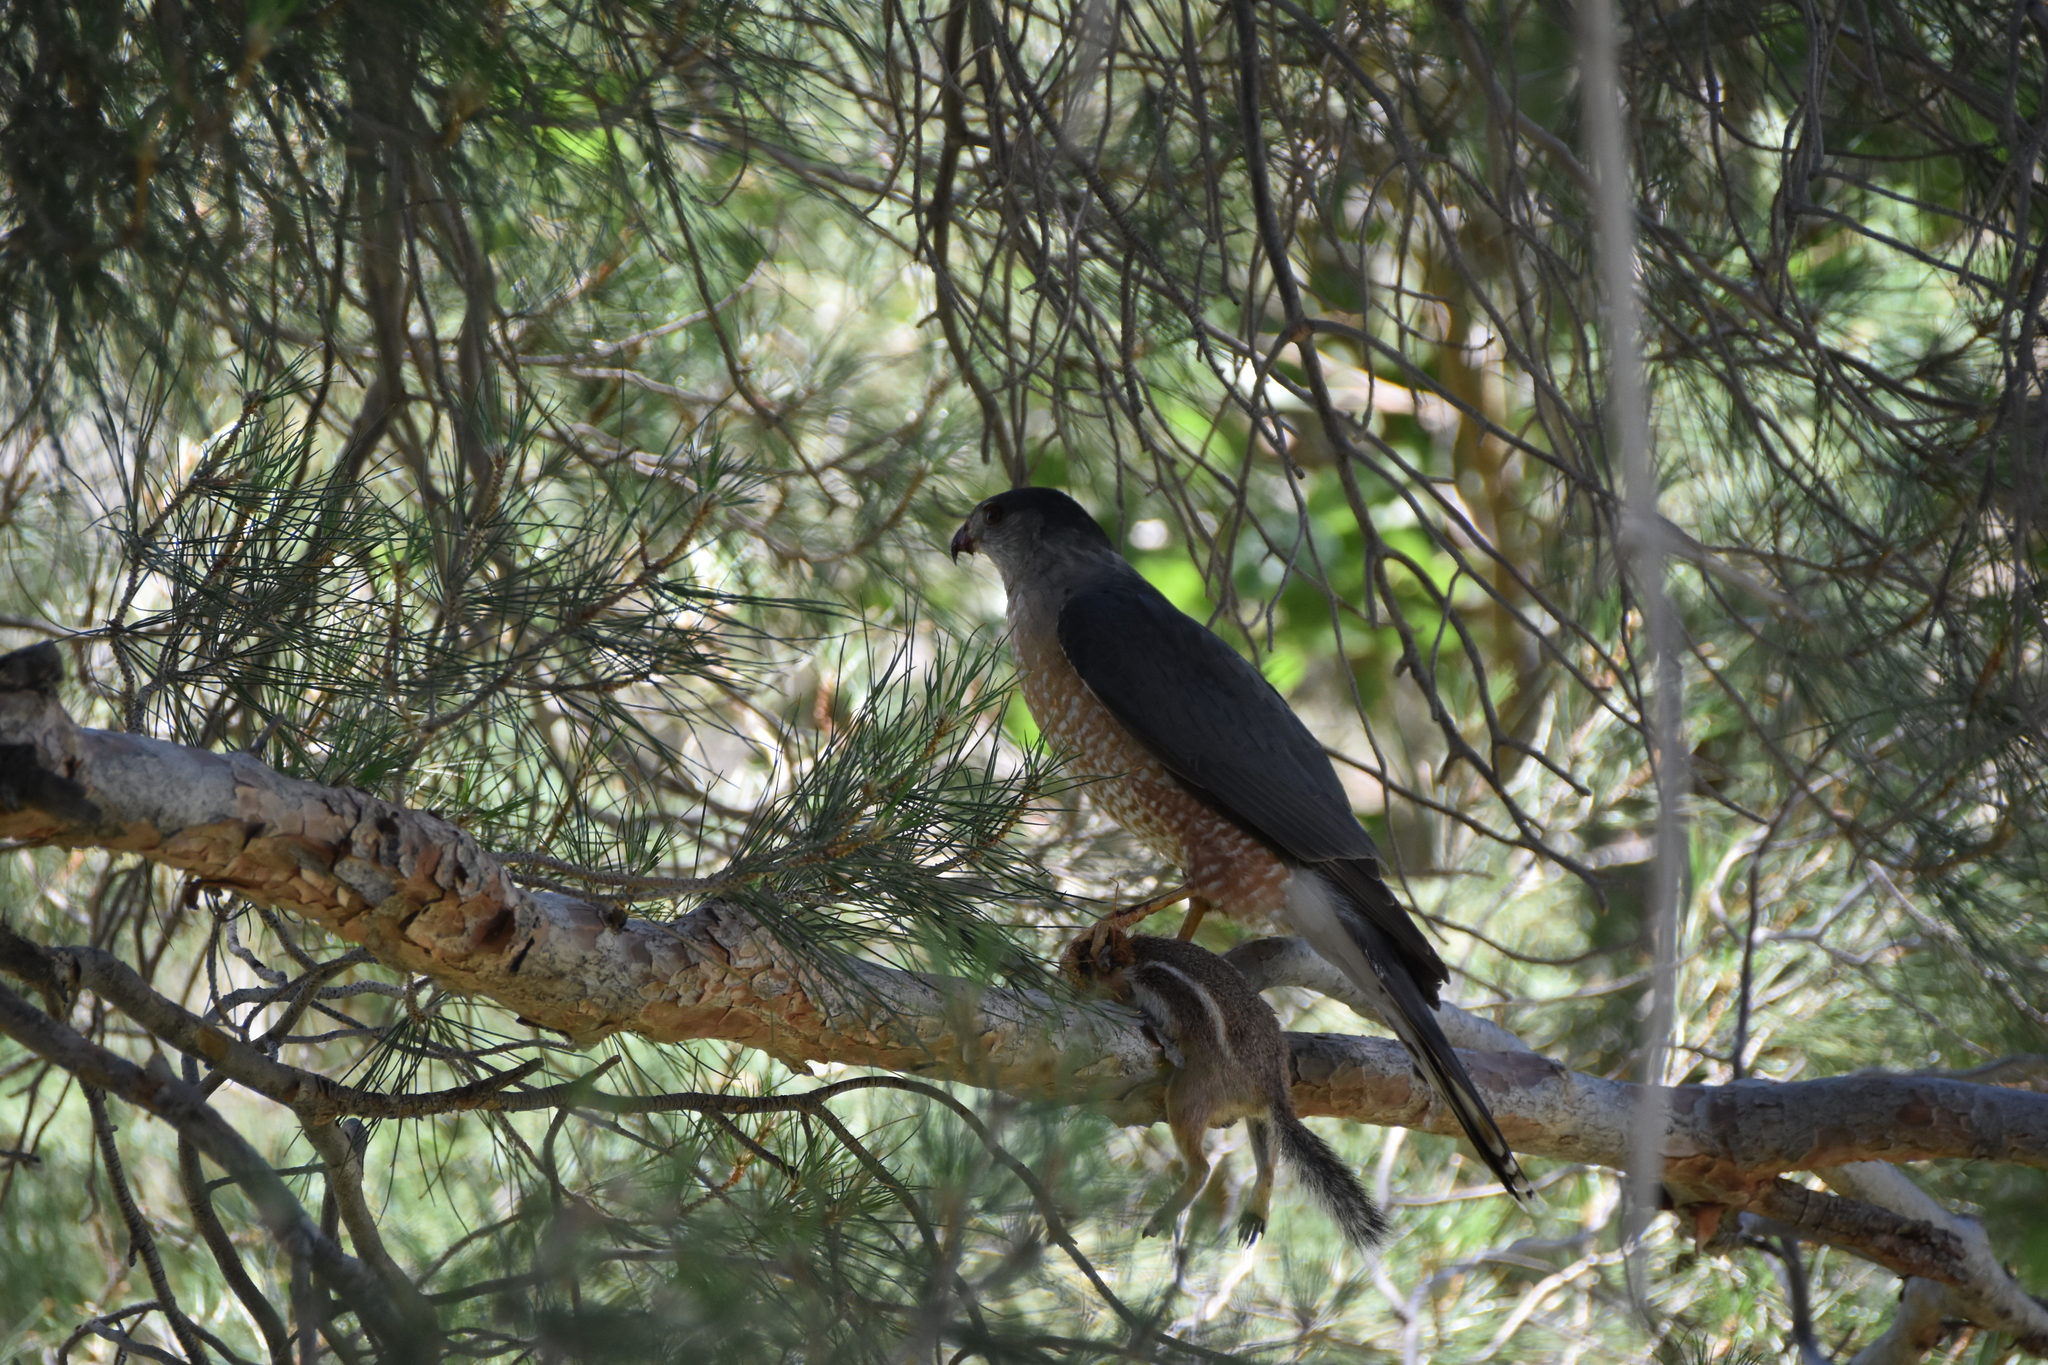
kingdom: Animalia
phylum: Chordata
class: Mammalia
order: Rodentia
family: Sciuridae
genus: Ammospermophilus
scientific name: Ammospermophilus leucurus
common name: White-tailed antelope squirrel
